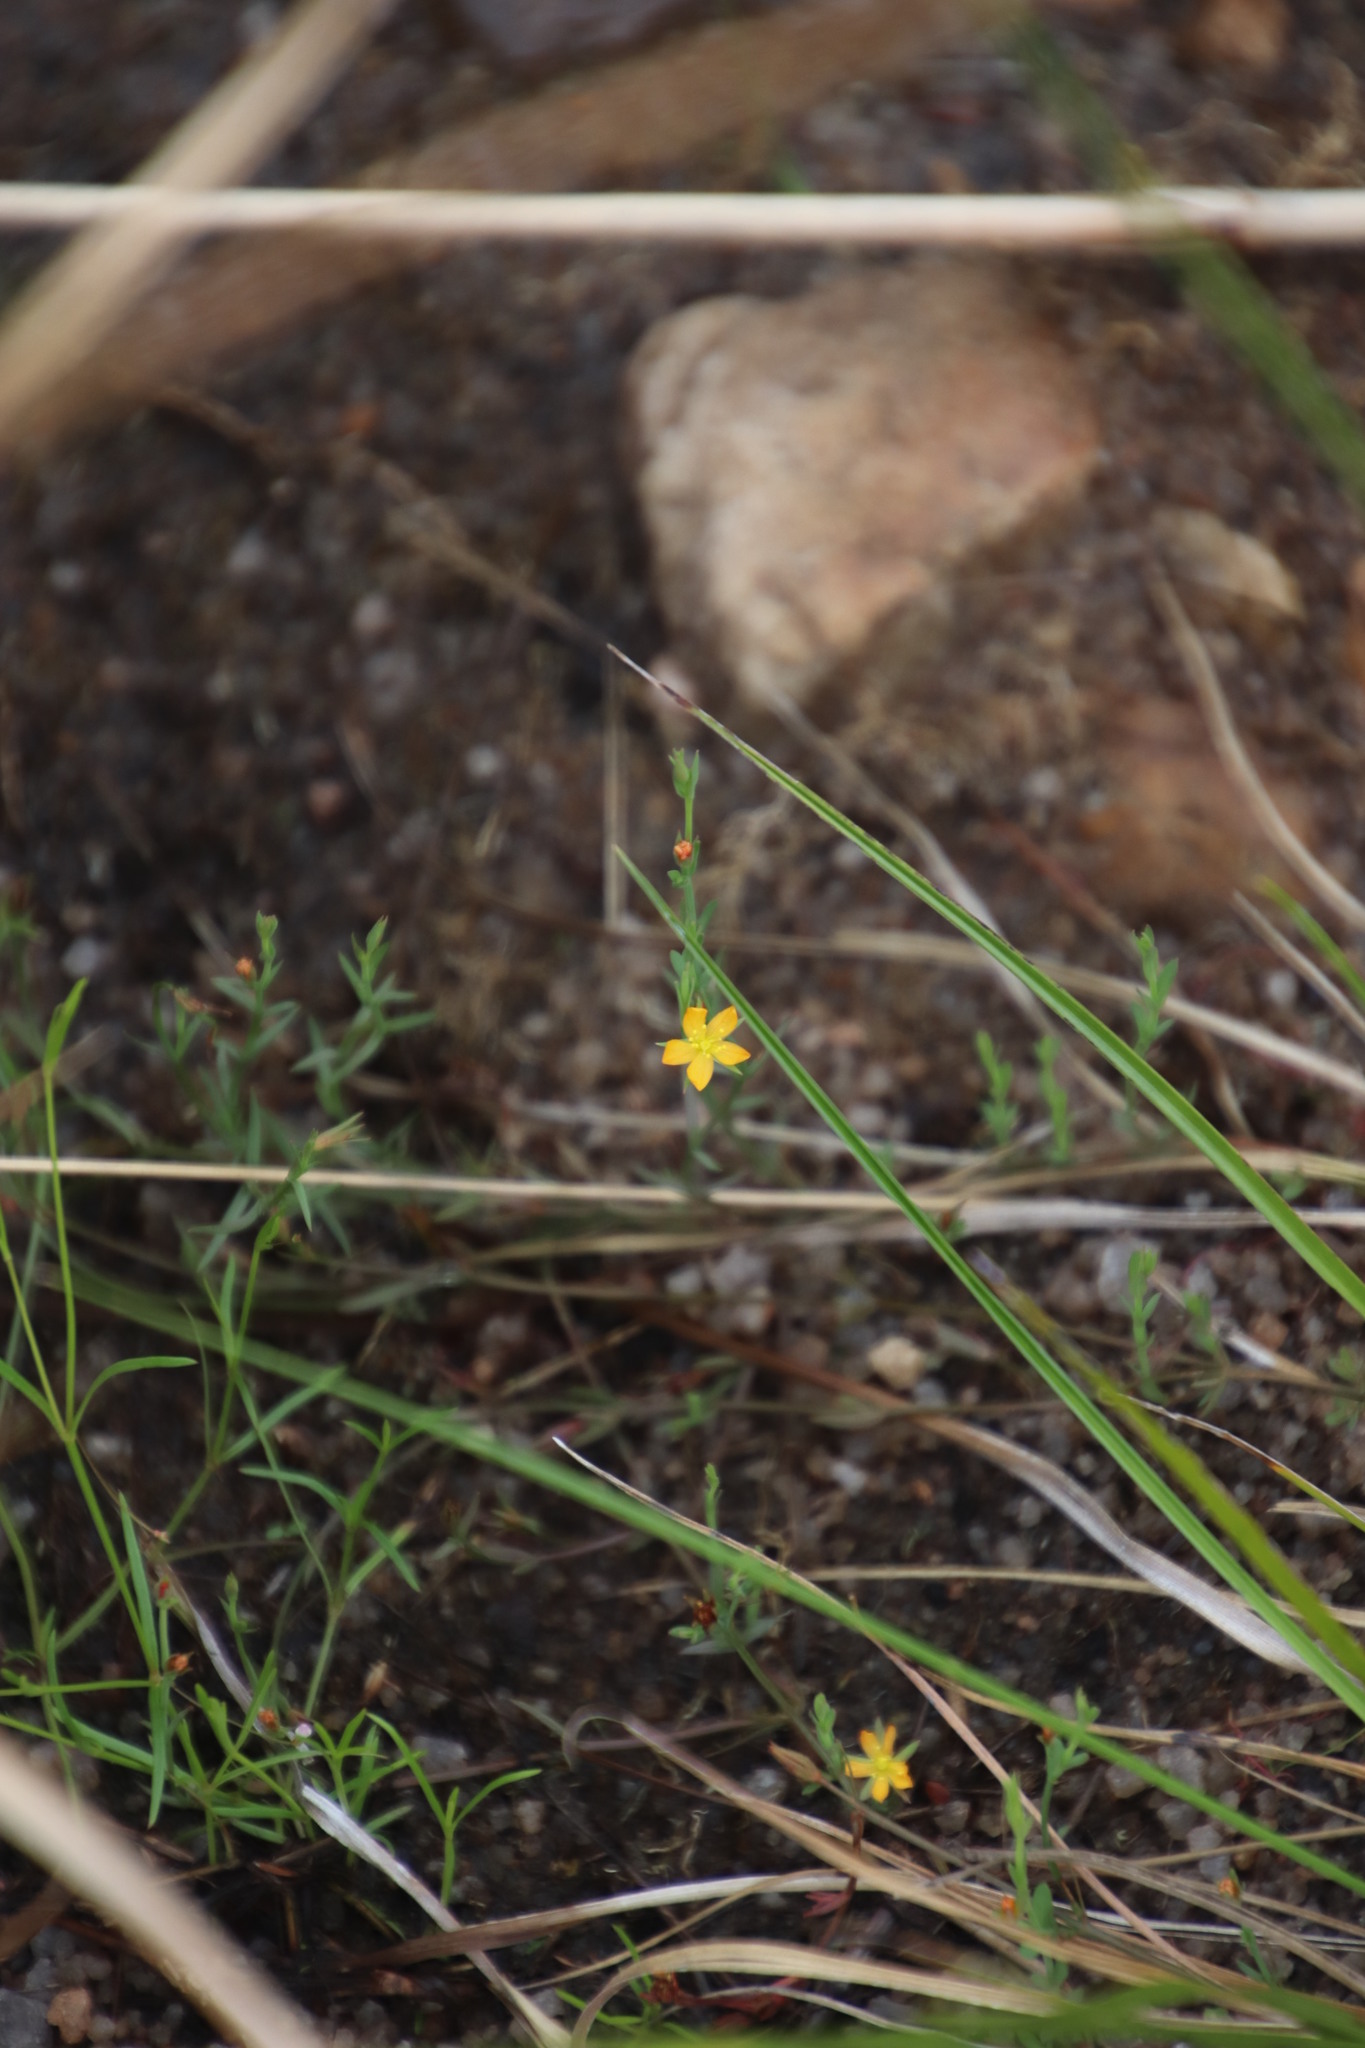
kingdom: Plantae
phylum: Tracheophyta
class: Magnoliopsida
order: Malpighiales
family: Hypericaceae
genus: Hypericum
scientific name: Hypericum lalandii
